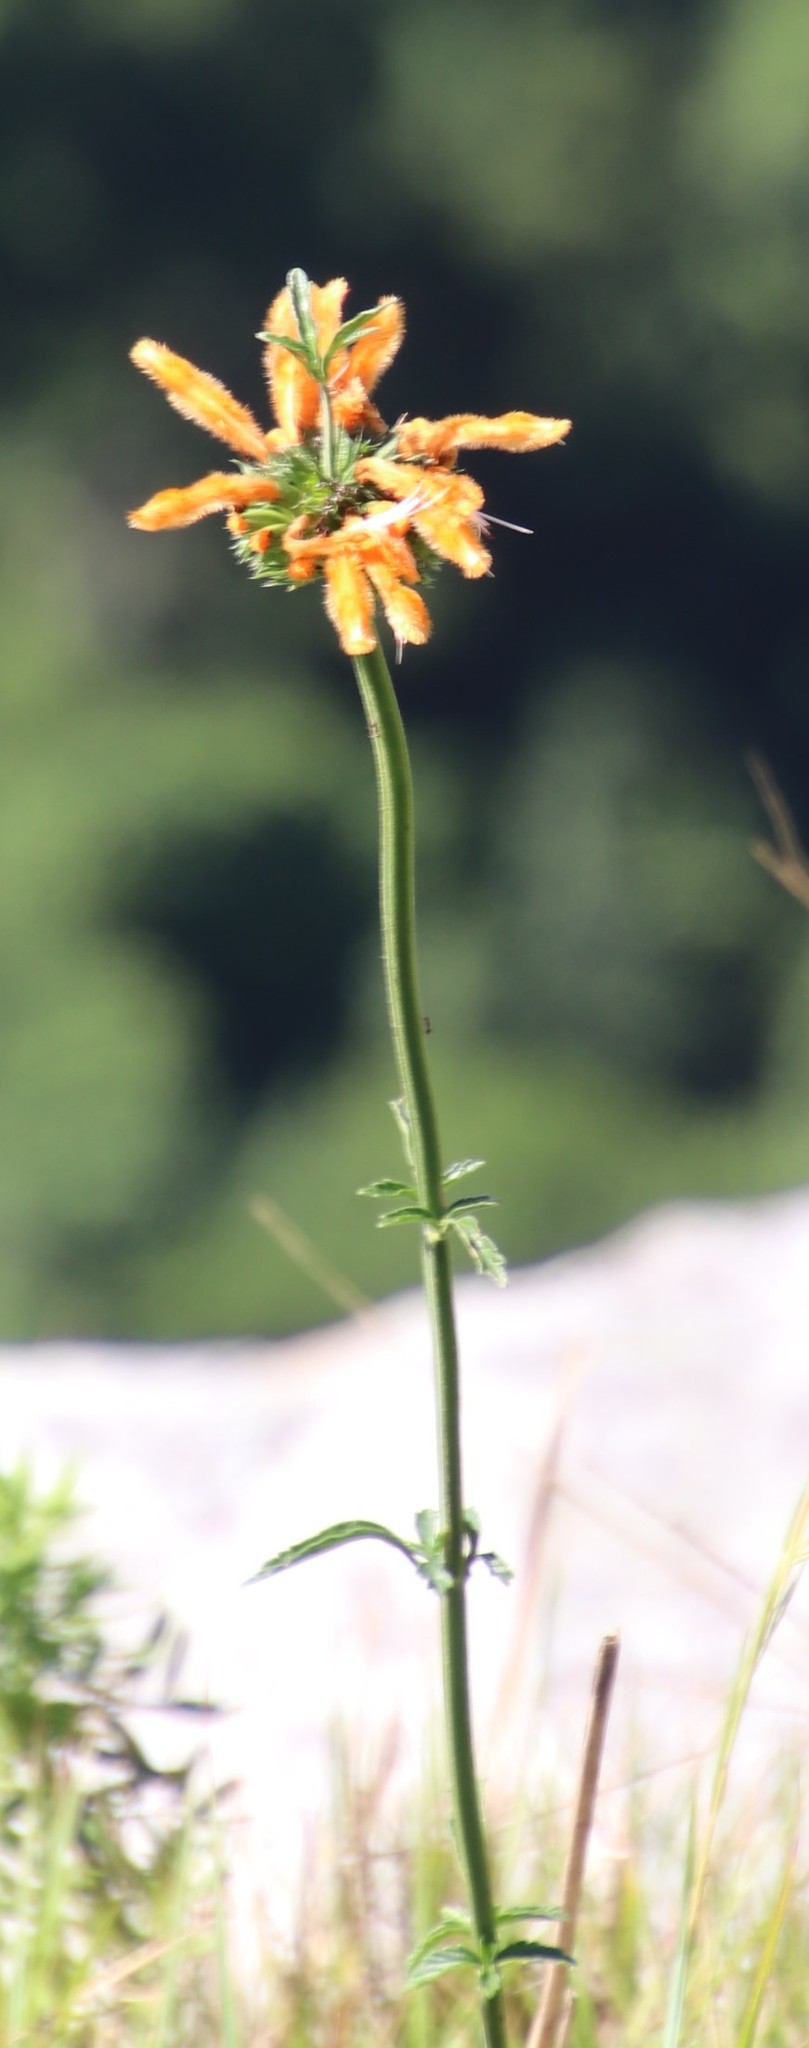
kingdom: Plantae
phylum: Tracheophyta
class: Magnoliopsida
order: Lamiales
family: Lamiaceae
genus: Leonotis
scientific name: Leonotis ocymifolia
